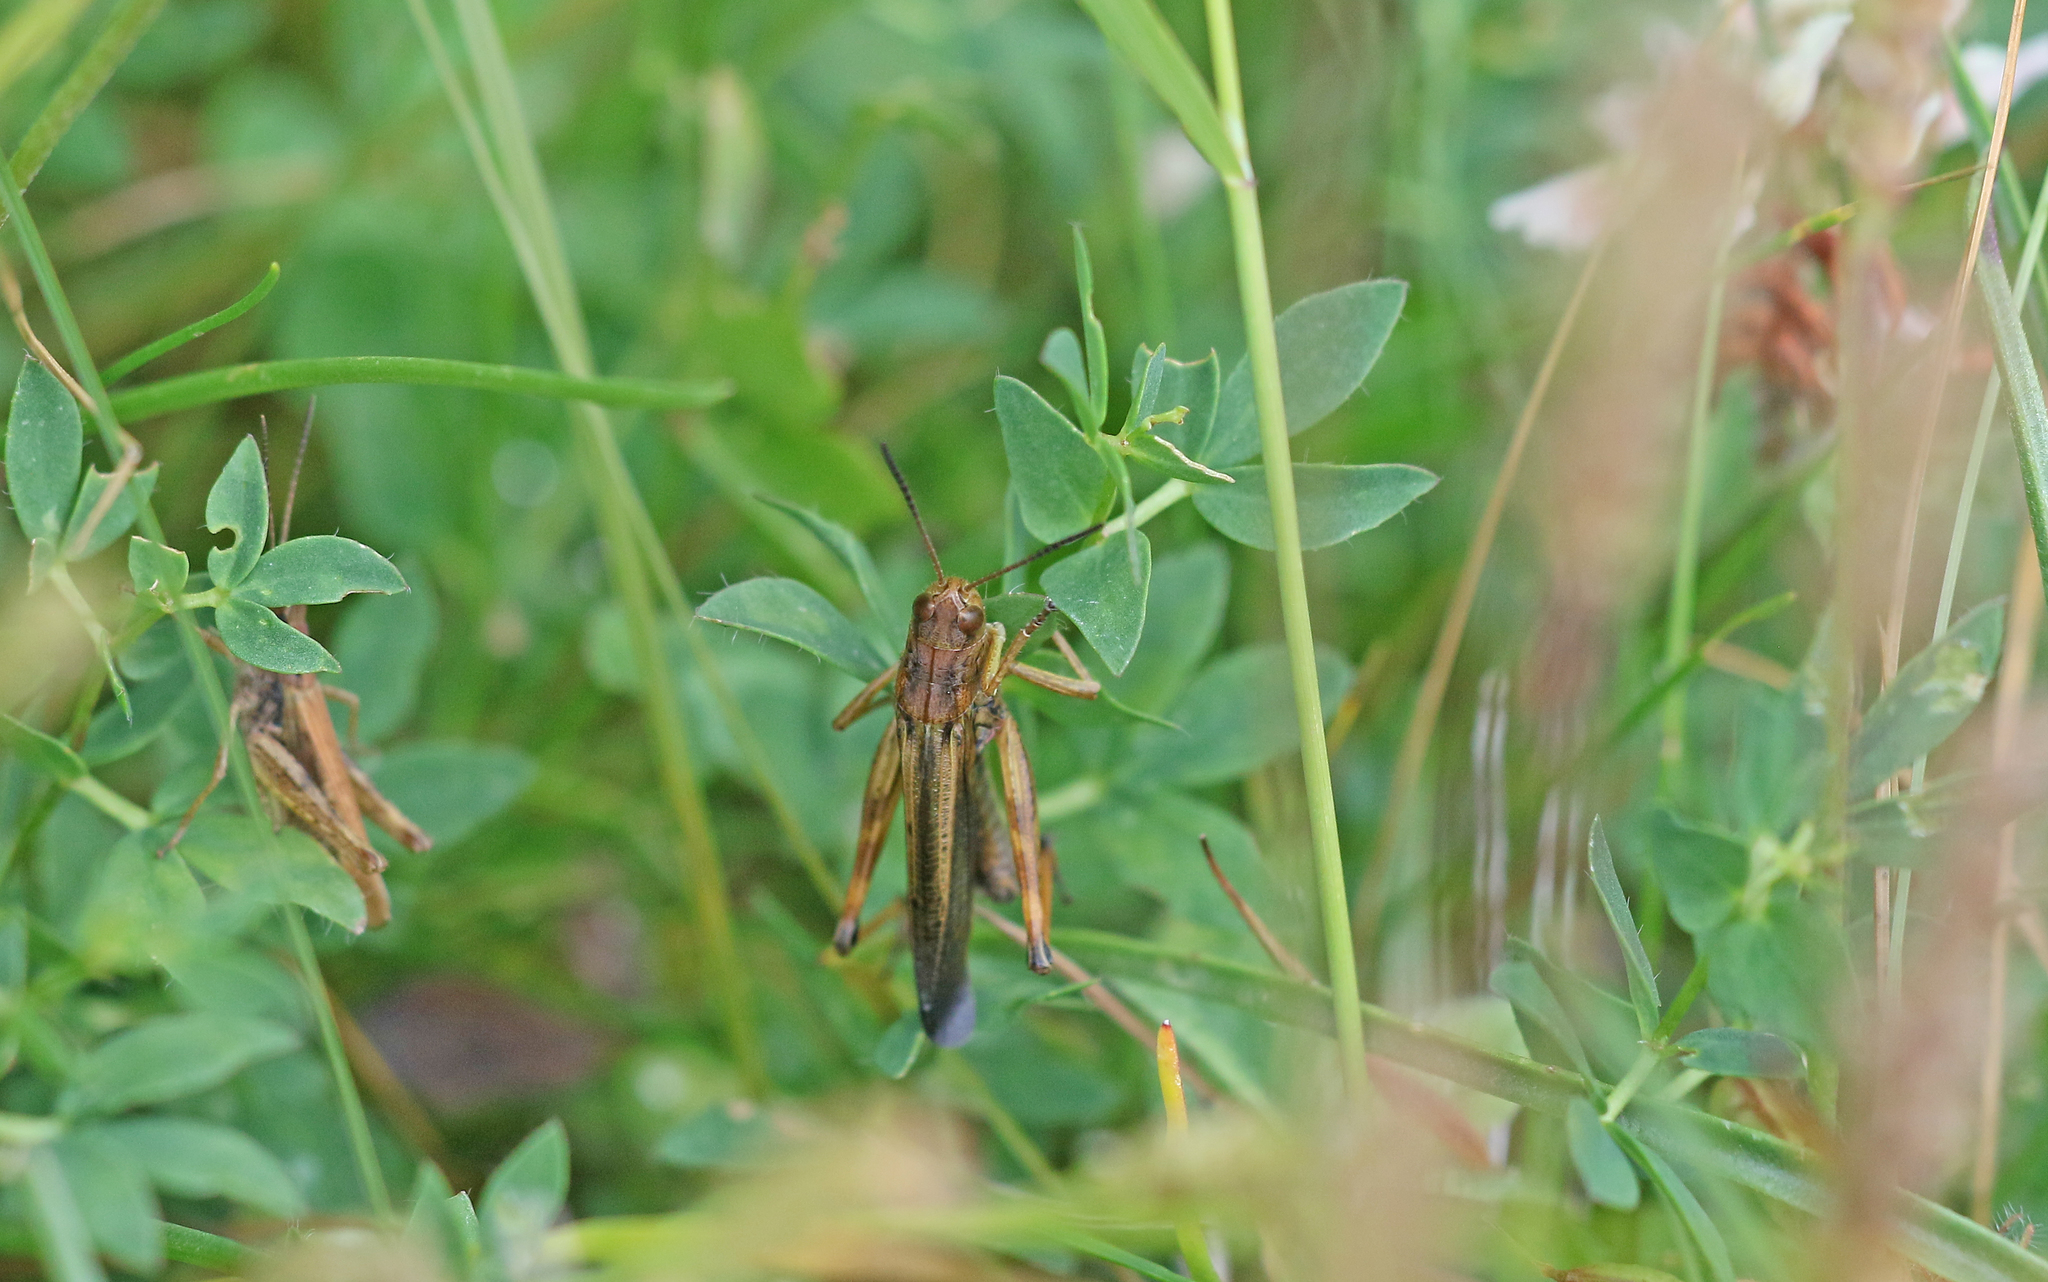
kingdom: Animalia
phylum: Arthropoda
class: Insecta
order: Orthoptera
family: Acrididae
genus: Stauroderus
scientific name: Stauroderus scalaris
